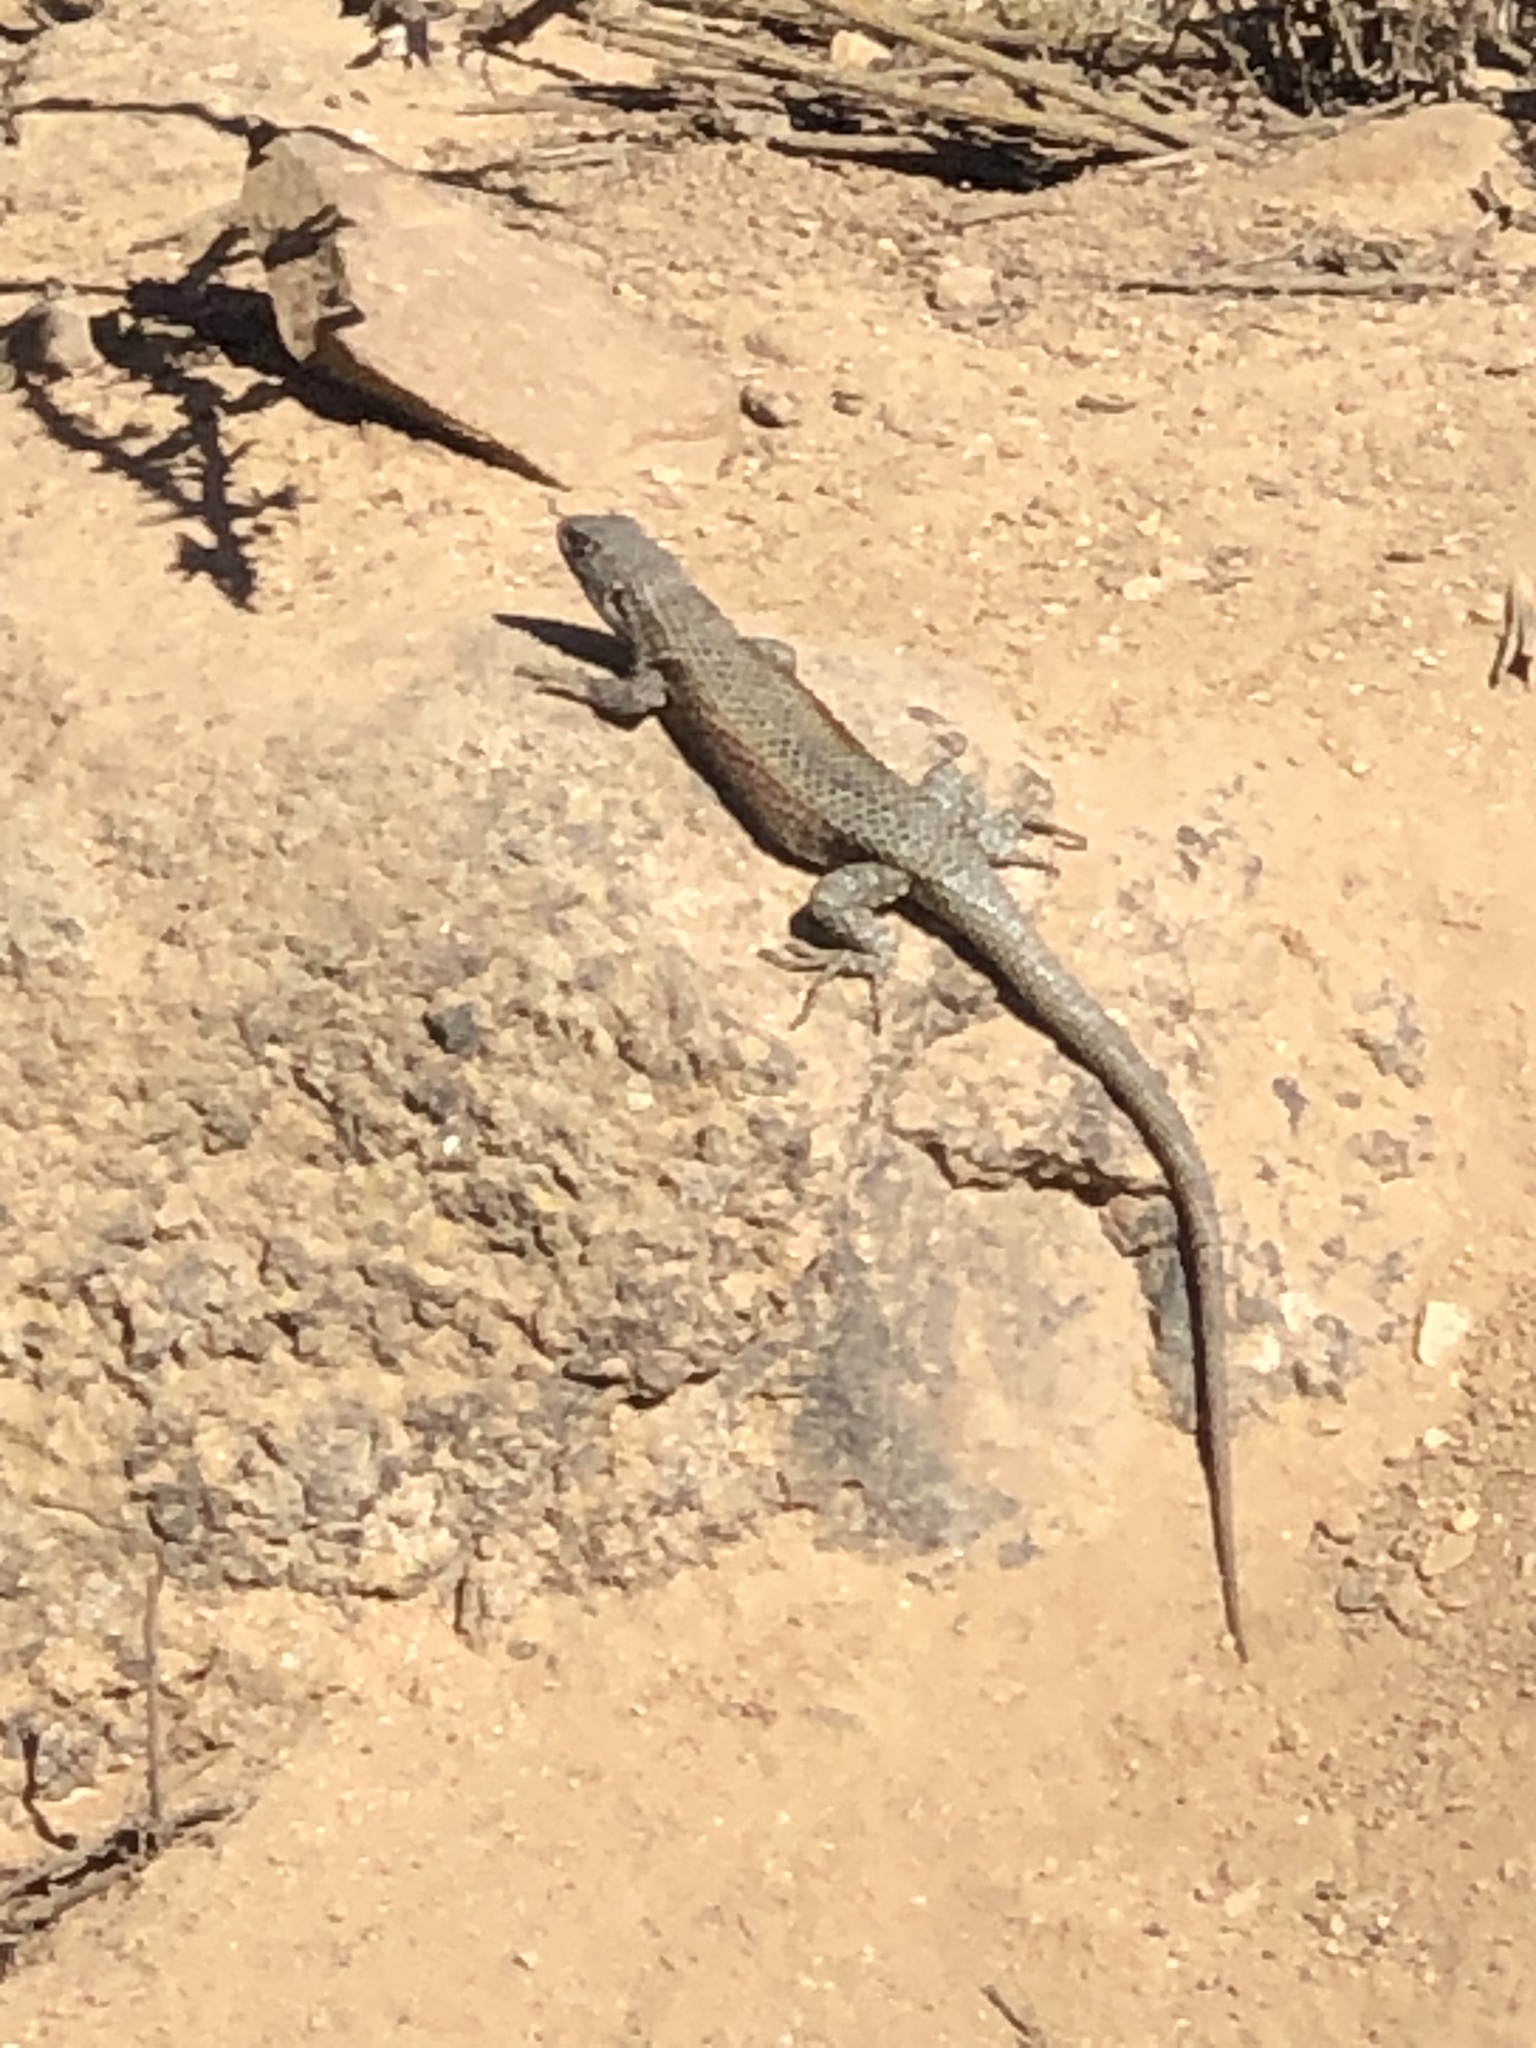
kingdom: Animalia
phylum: Chordata
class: Squamata
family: Liolaemidae
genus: Liolaemus
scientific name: Liolaemus nitidus
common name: Shining tree iguana
